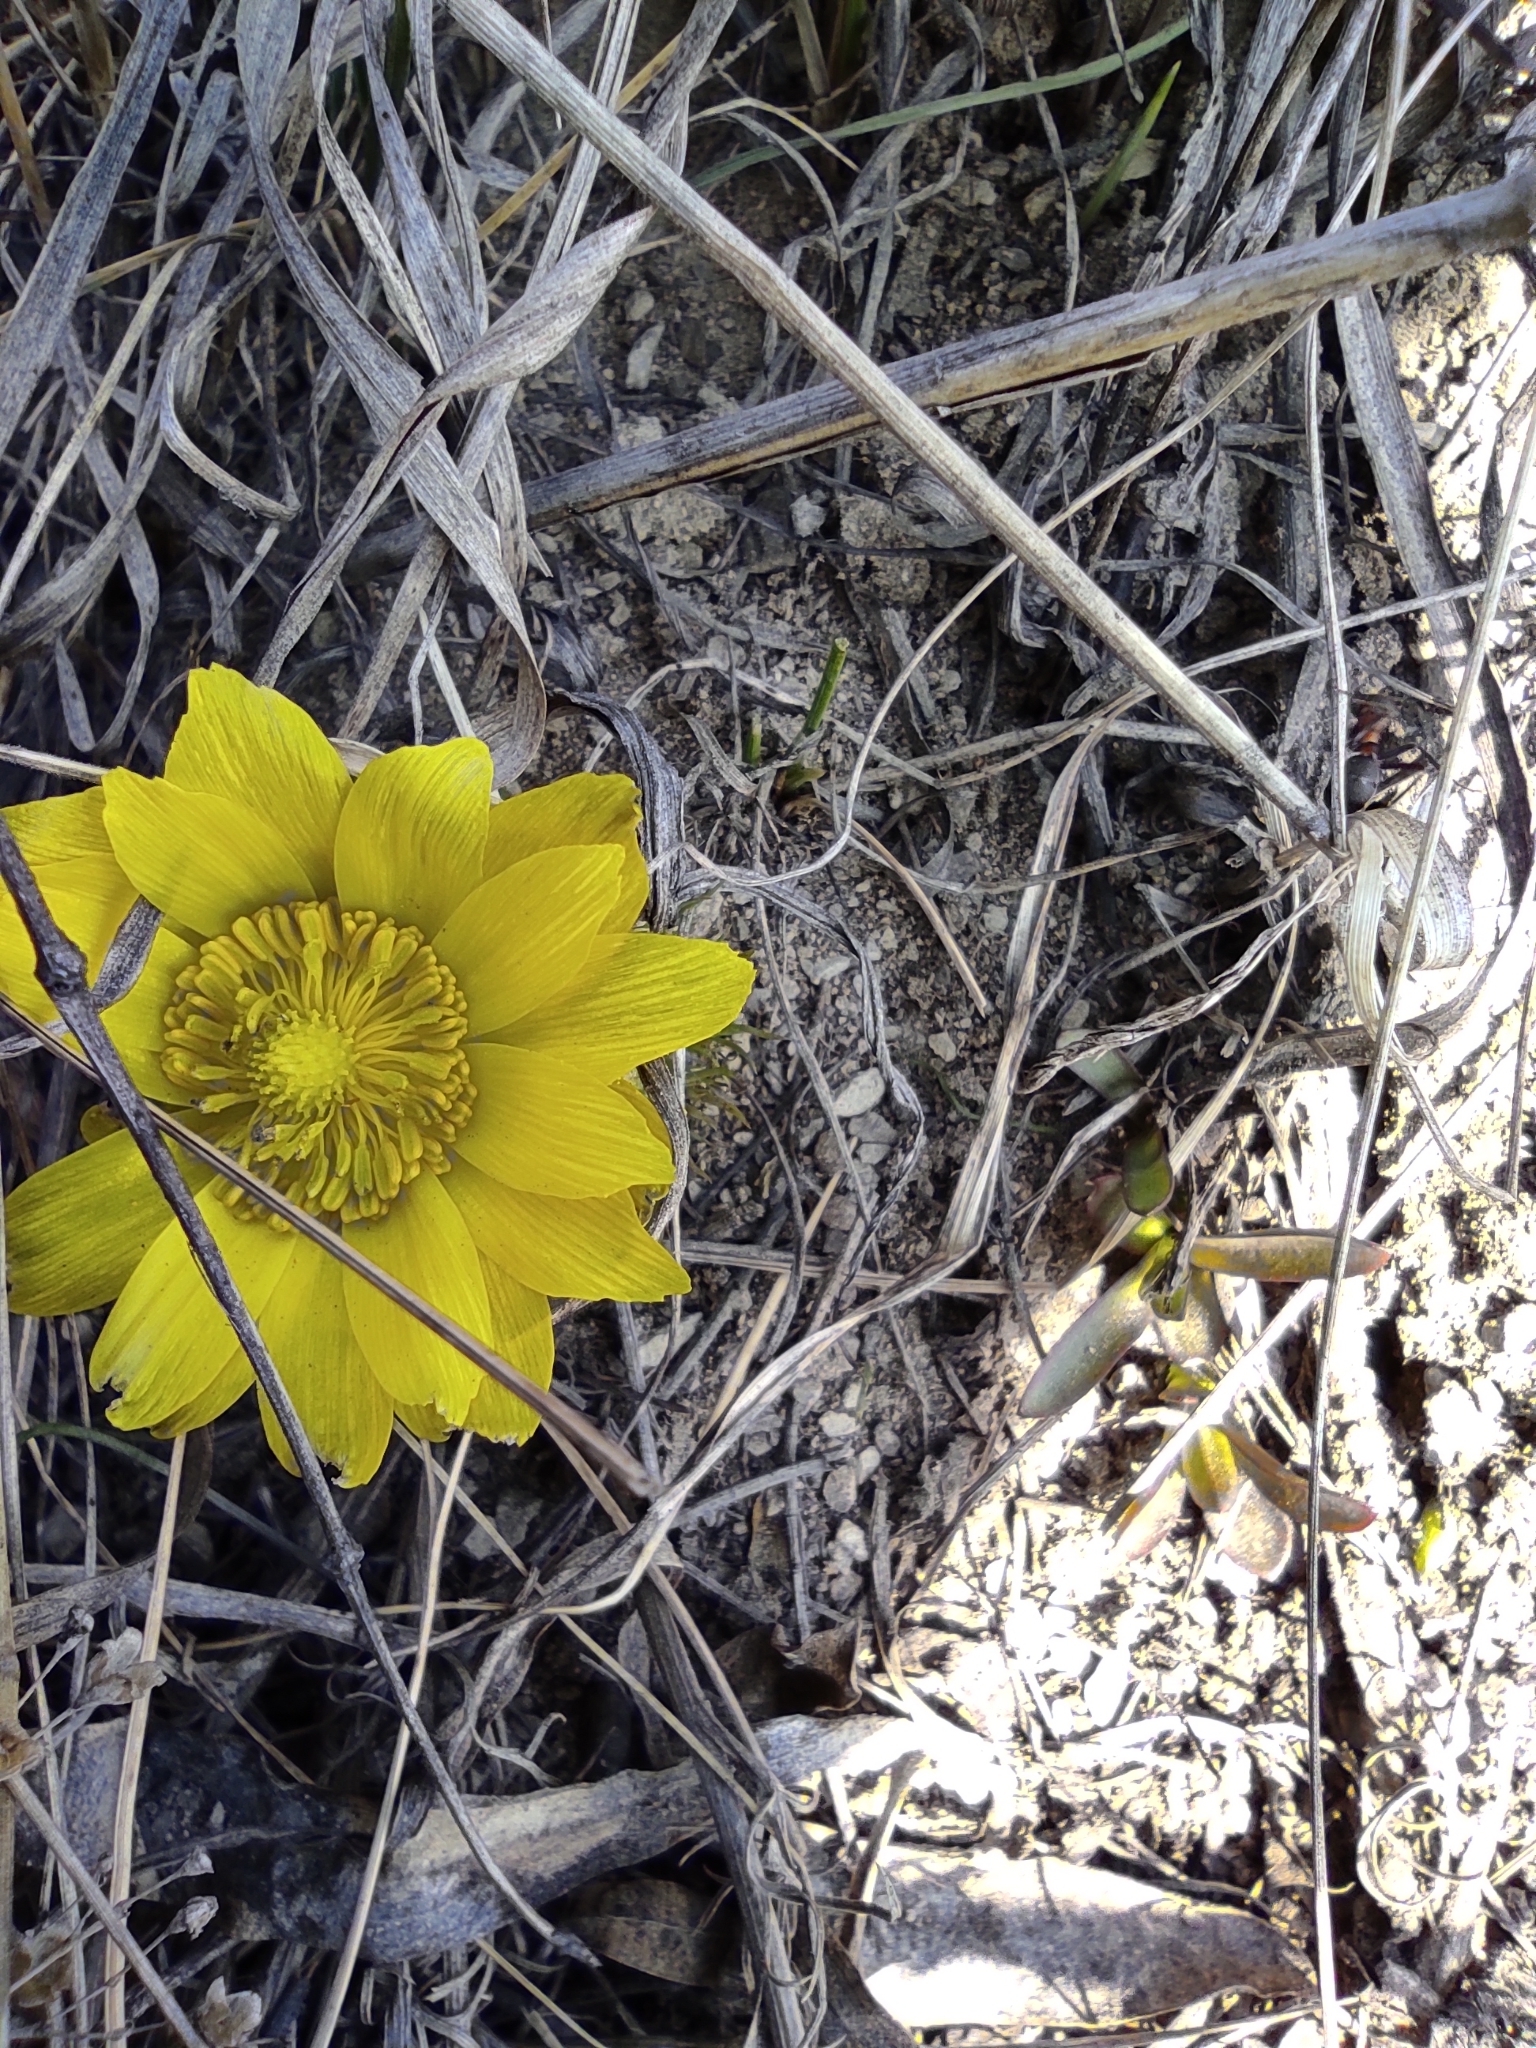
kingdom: Plantae
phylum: Tracheophyta
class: Magnoliopsida
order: Ranunculales
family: Ranunculaceae
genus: Adonis
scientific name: Adonis vernalis
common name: Yellow pheasants-eye
